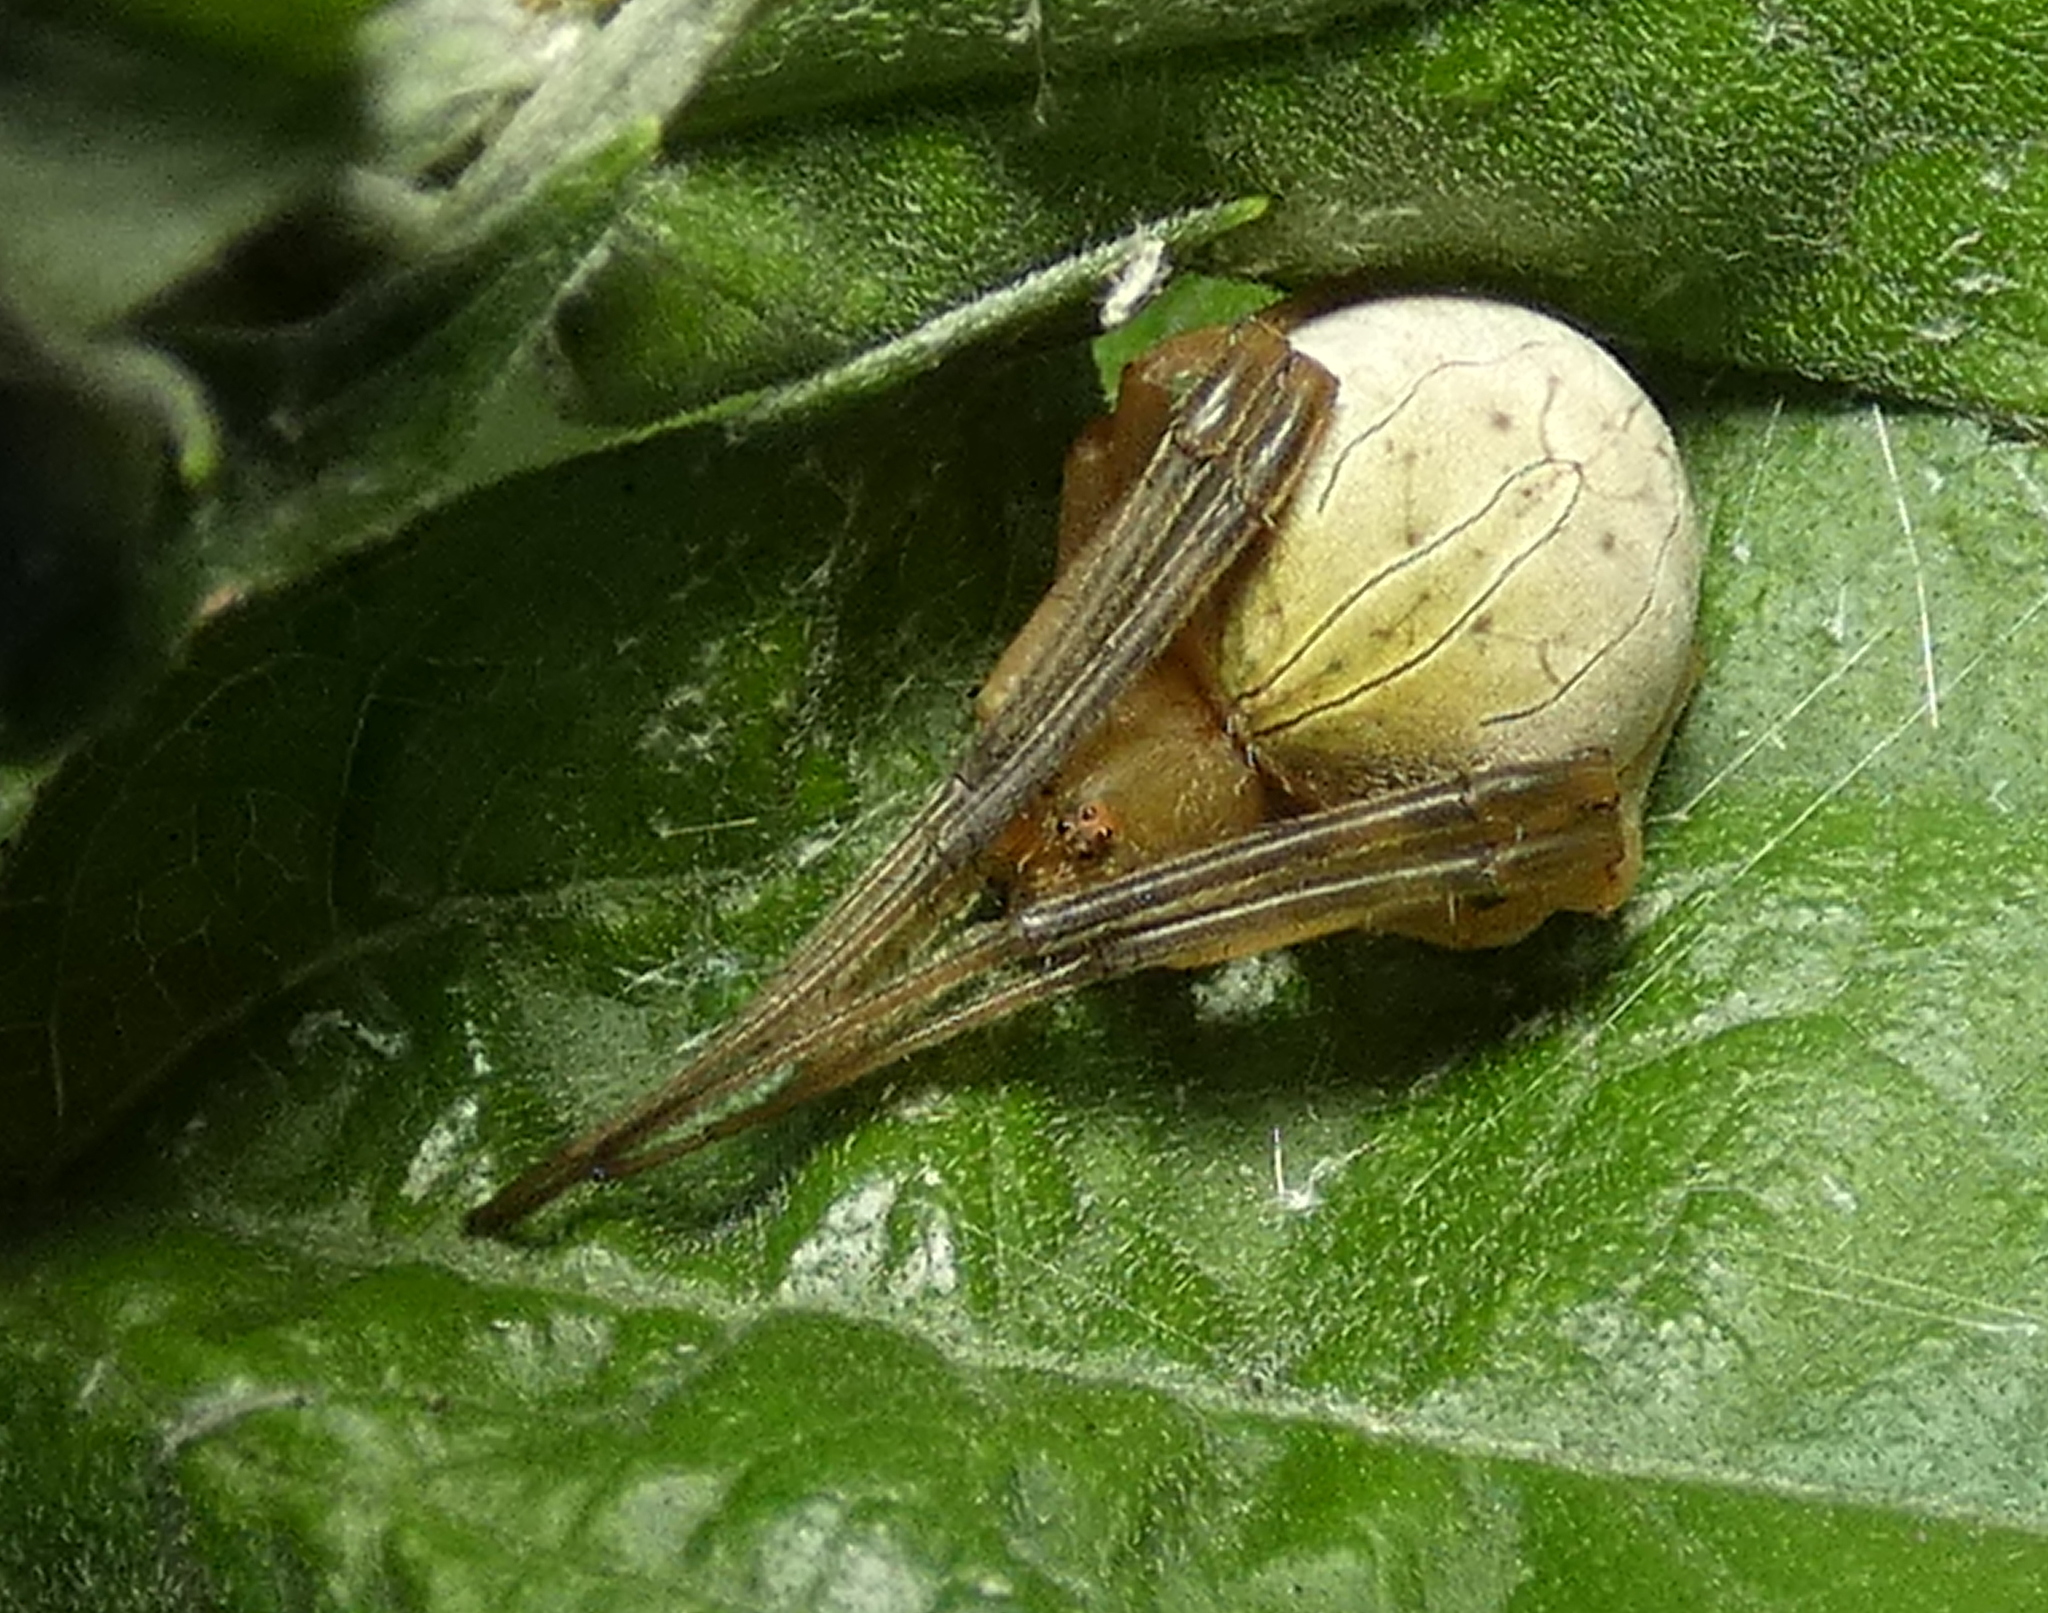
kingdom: Animalia
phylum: Arthropoda
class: Arachnida
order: Araneae
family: Araneidae
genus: Acacesia
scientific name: Acacesia hamata
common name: Orb weavers
